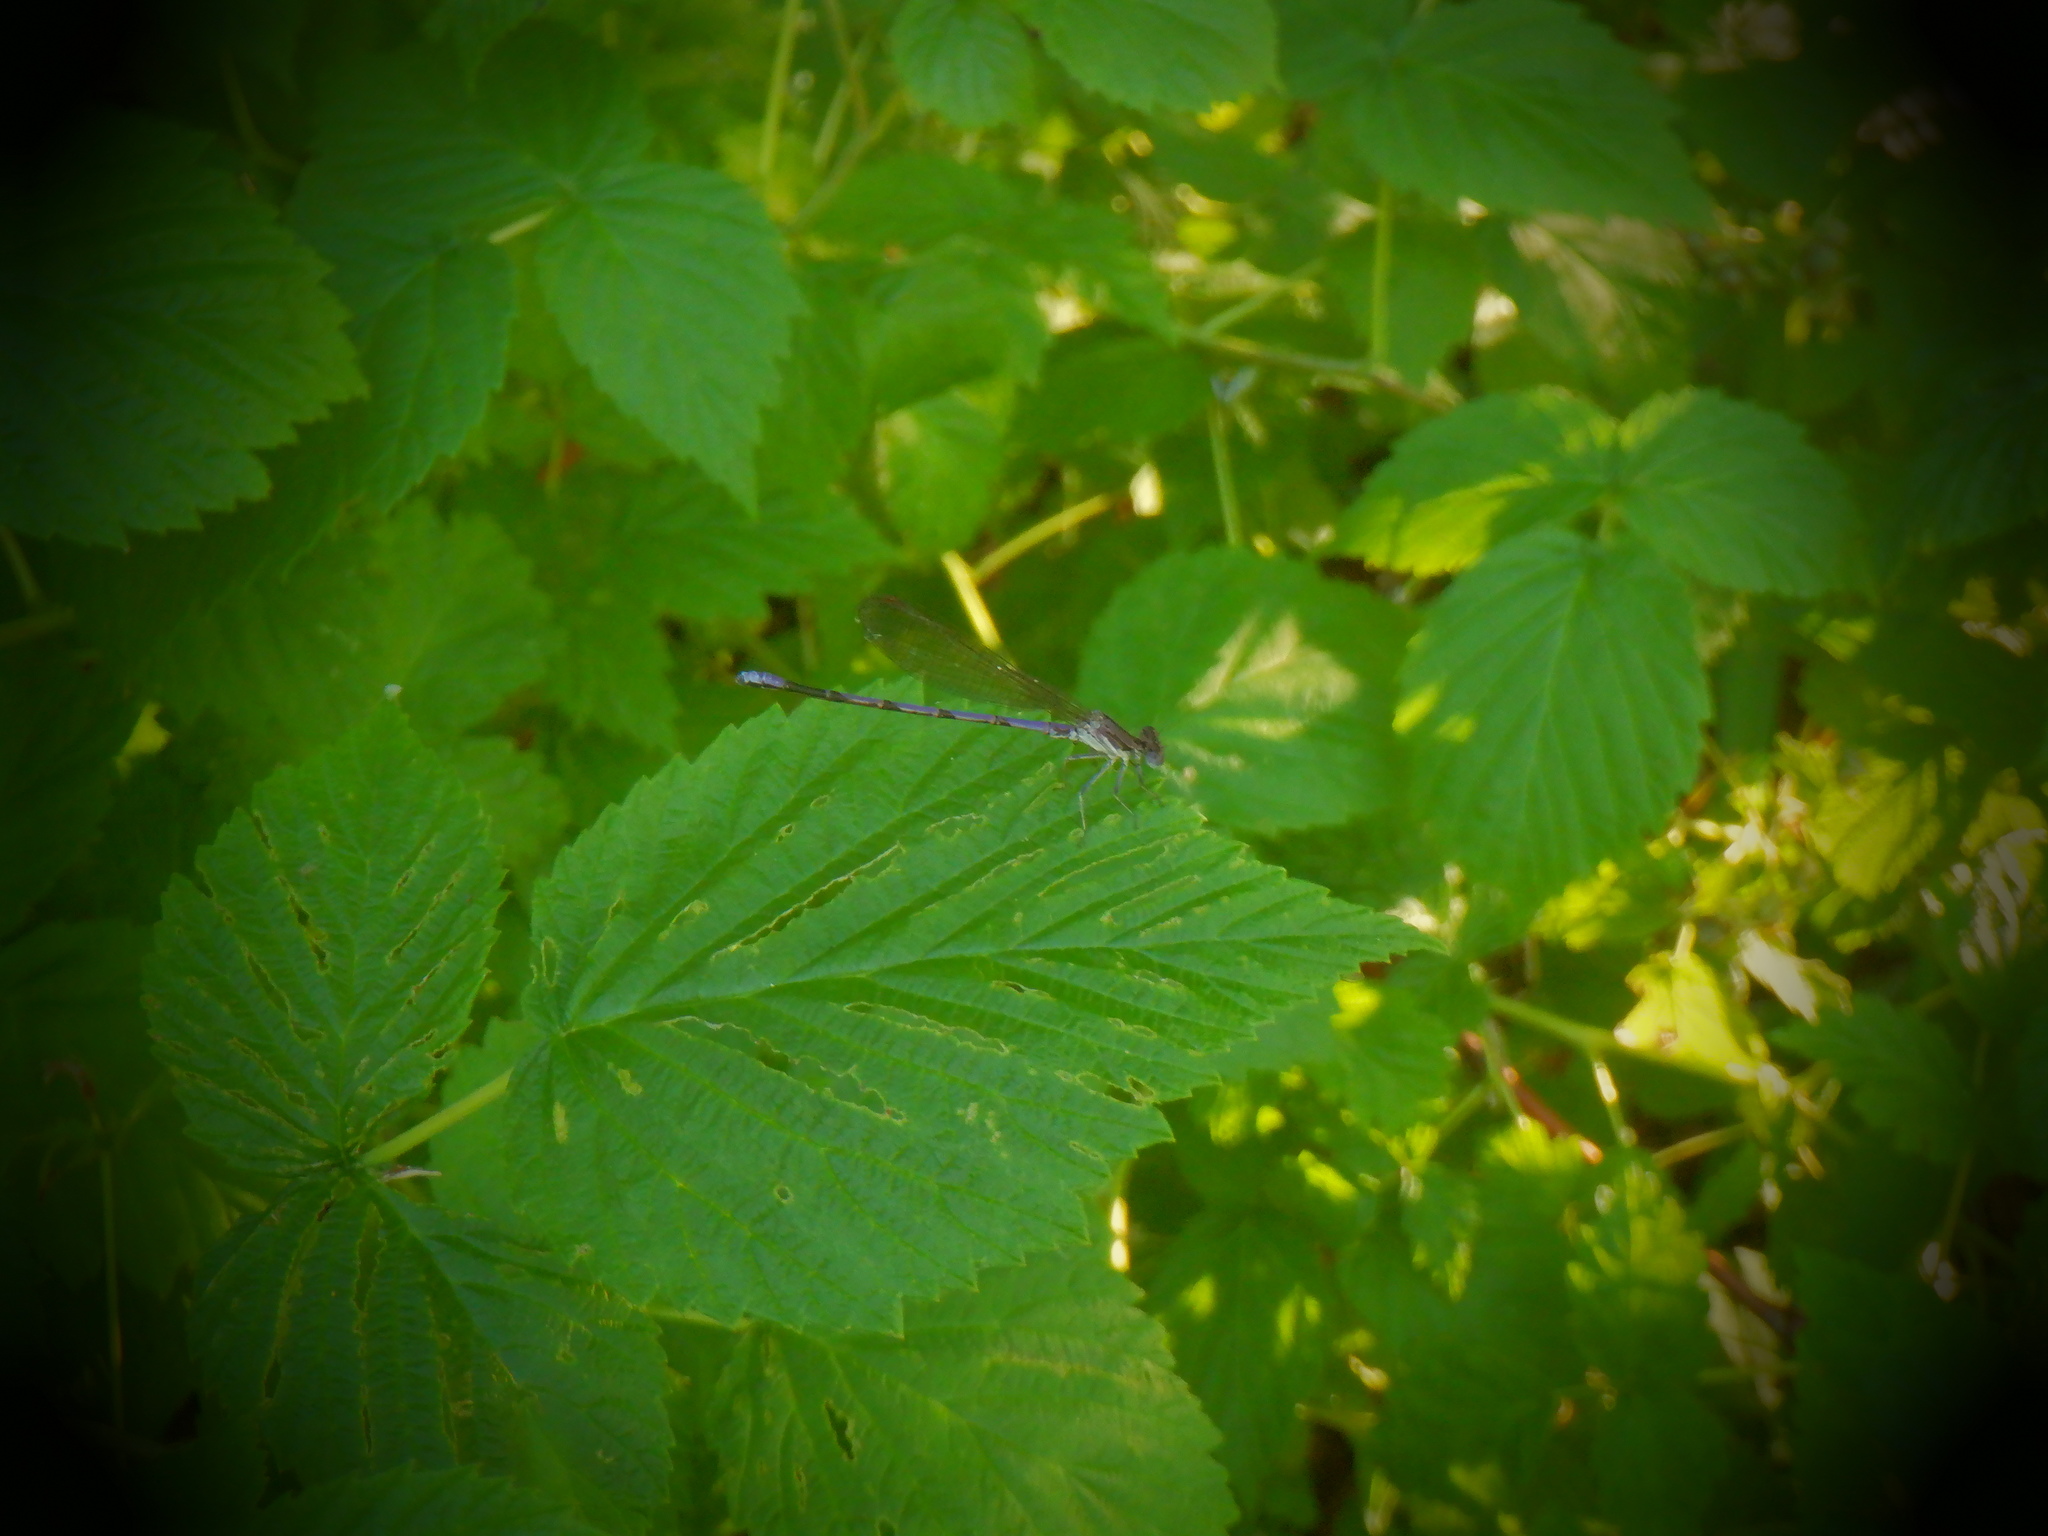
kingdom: Animalia
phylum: Arthropoda
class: Insecta
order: Odonata
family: Coenagrionidae
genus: Argia
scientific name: Argia fumipennis
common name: Variable dancer
